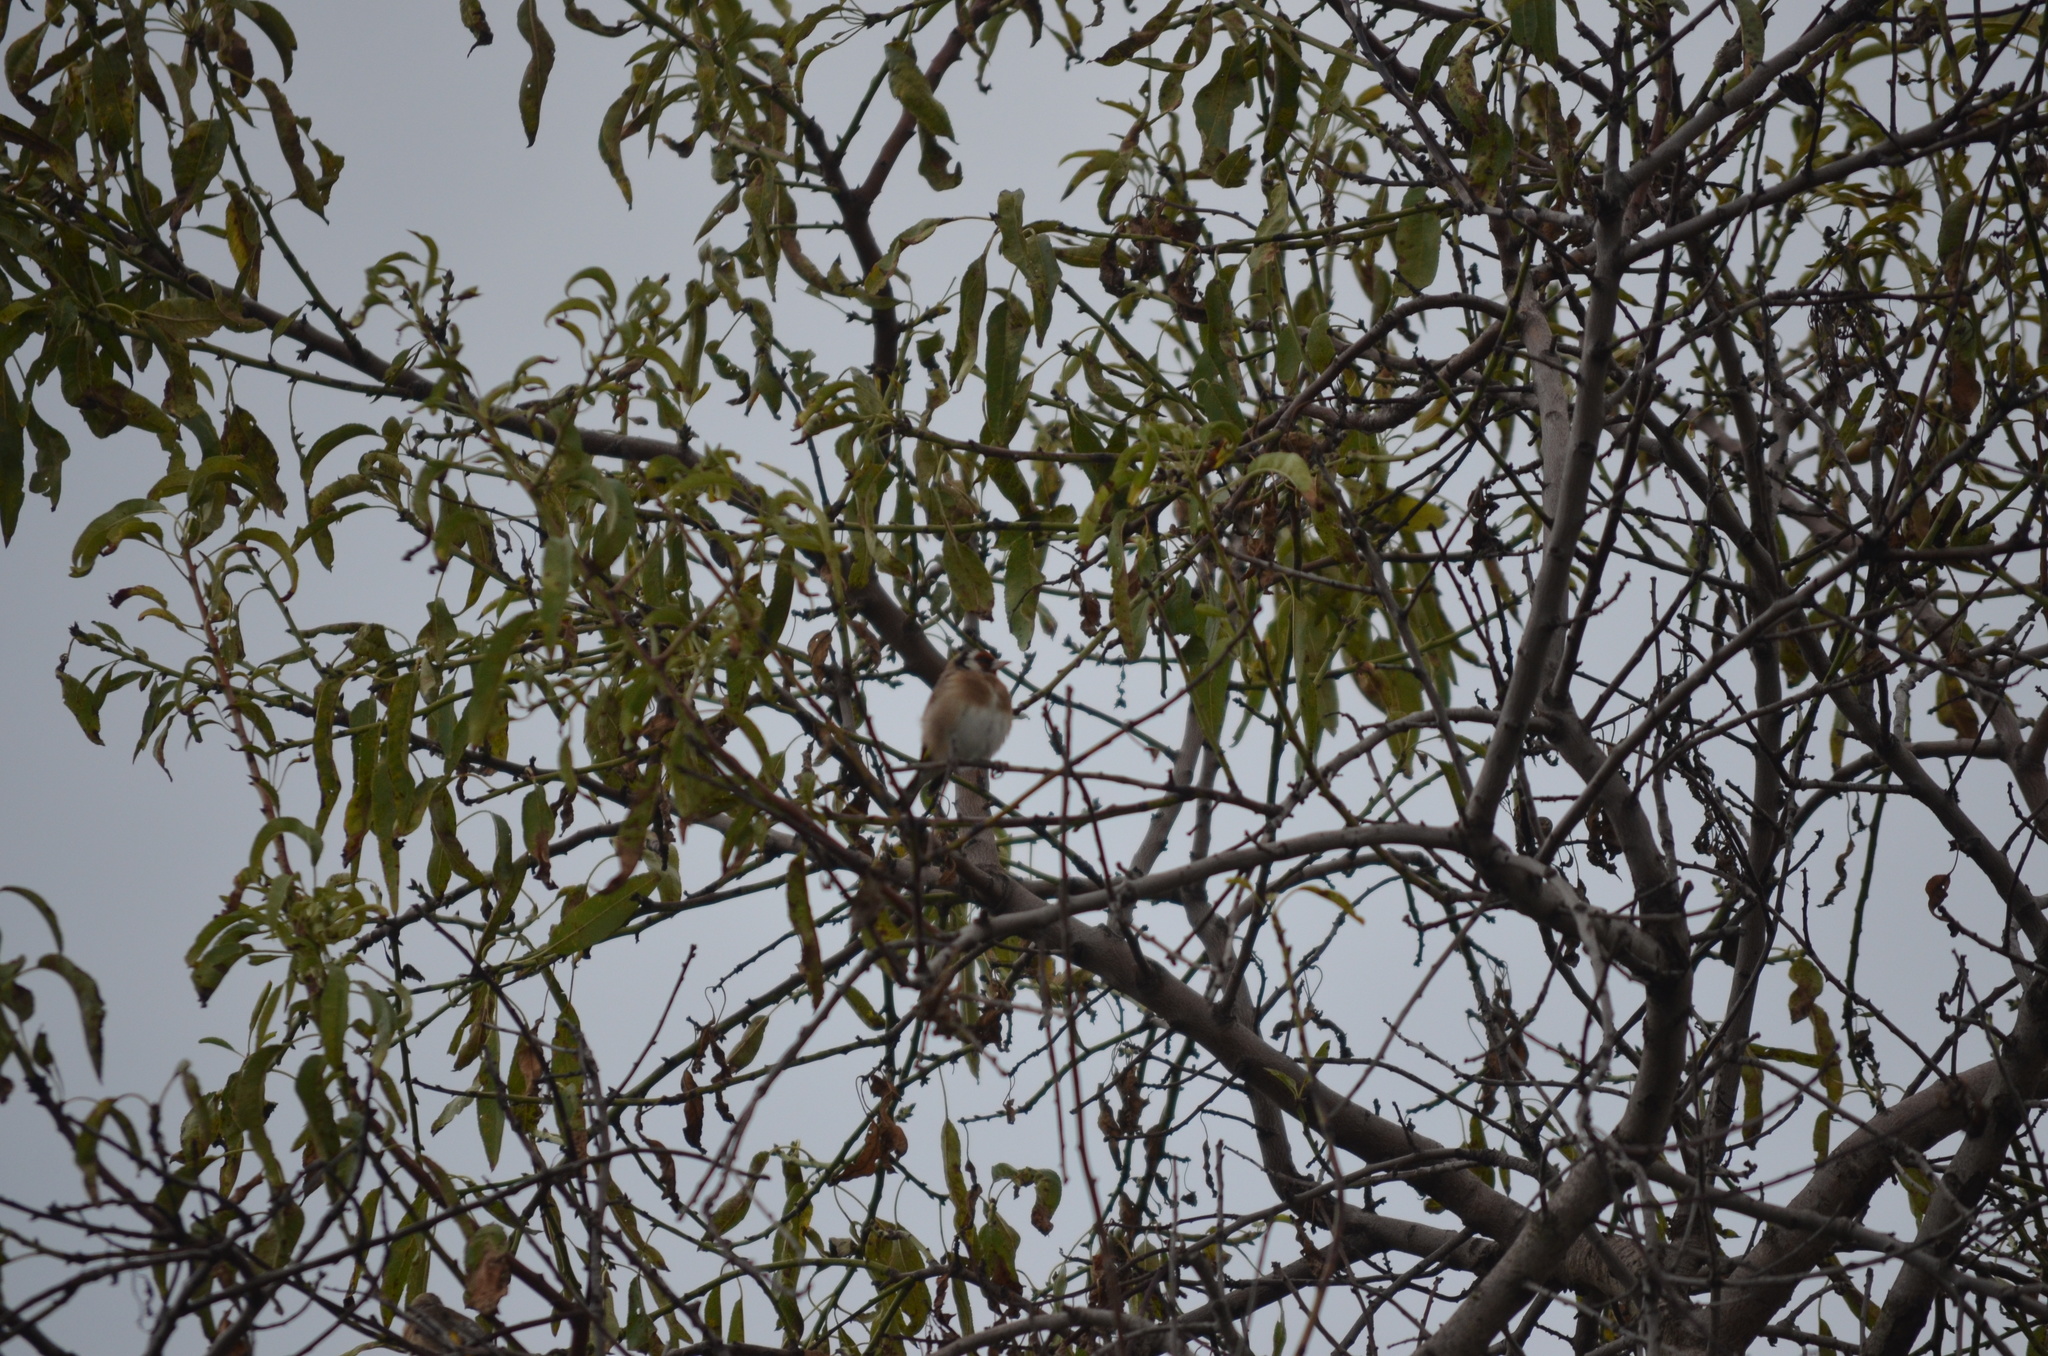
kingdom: Animalia
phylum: Chordata
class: Aves
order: Passeriformes
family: Fringillidae
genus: Carduelis
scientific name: Carduelis carduelis
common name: European goldfinch
